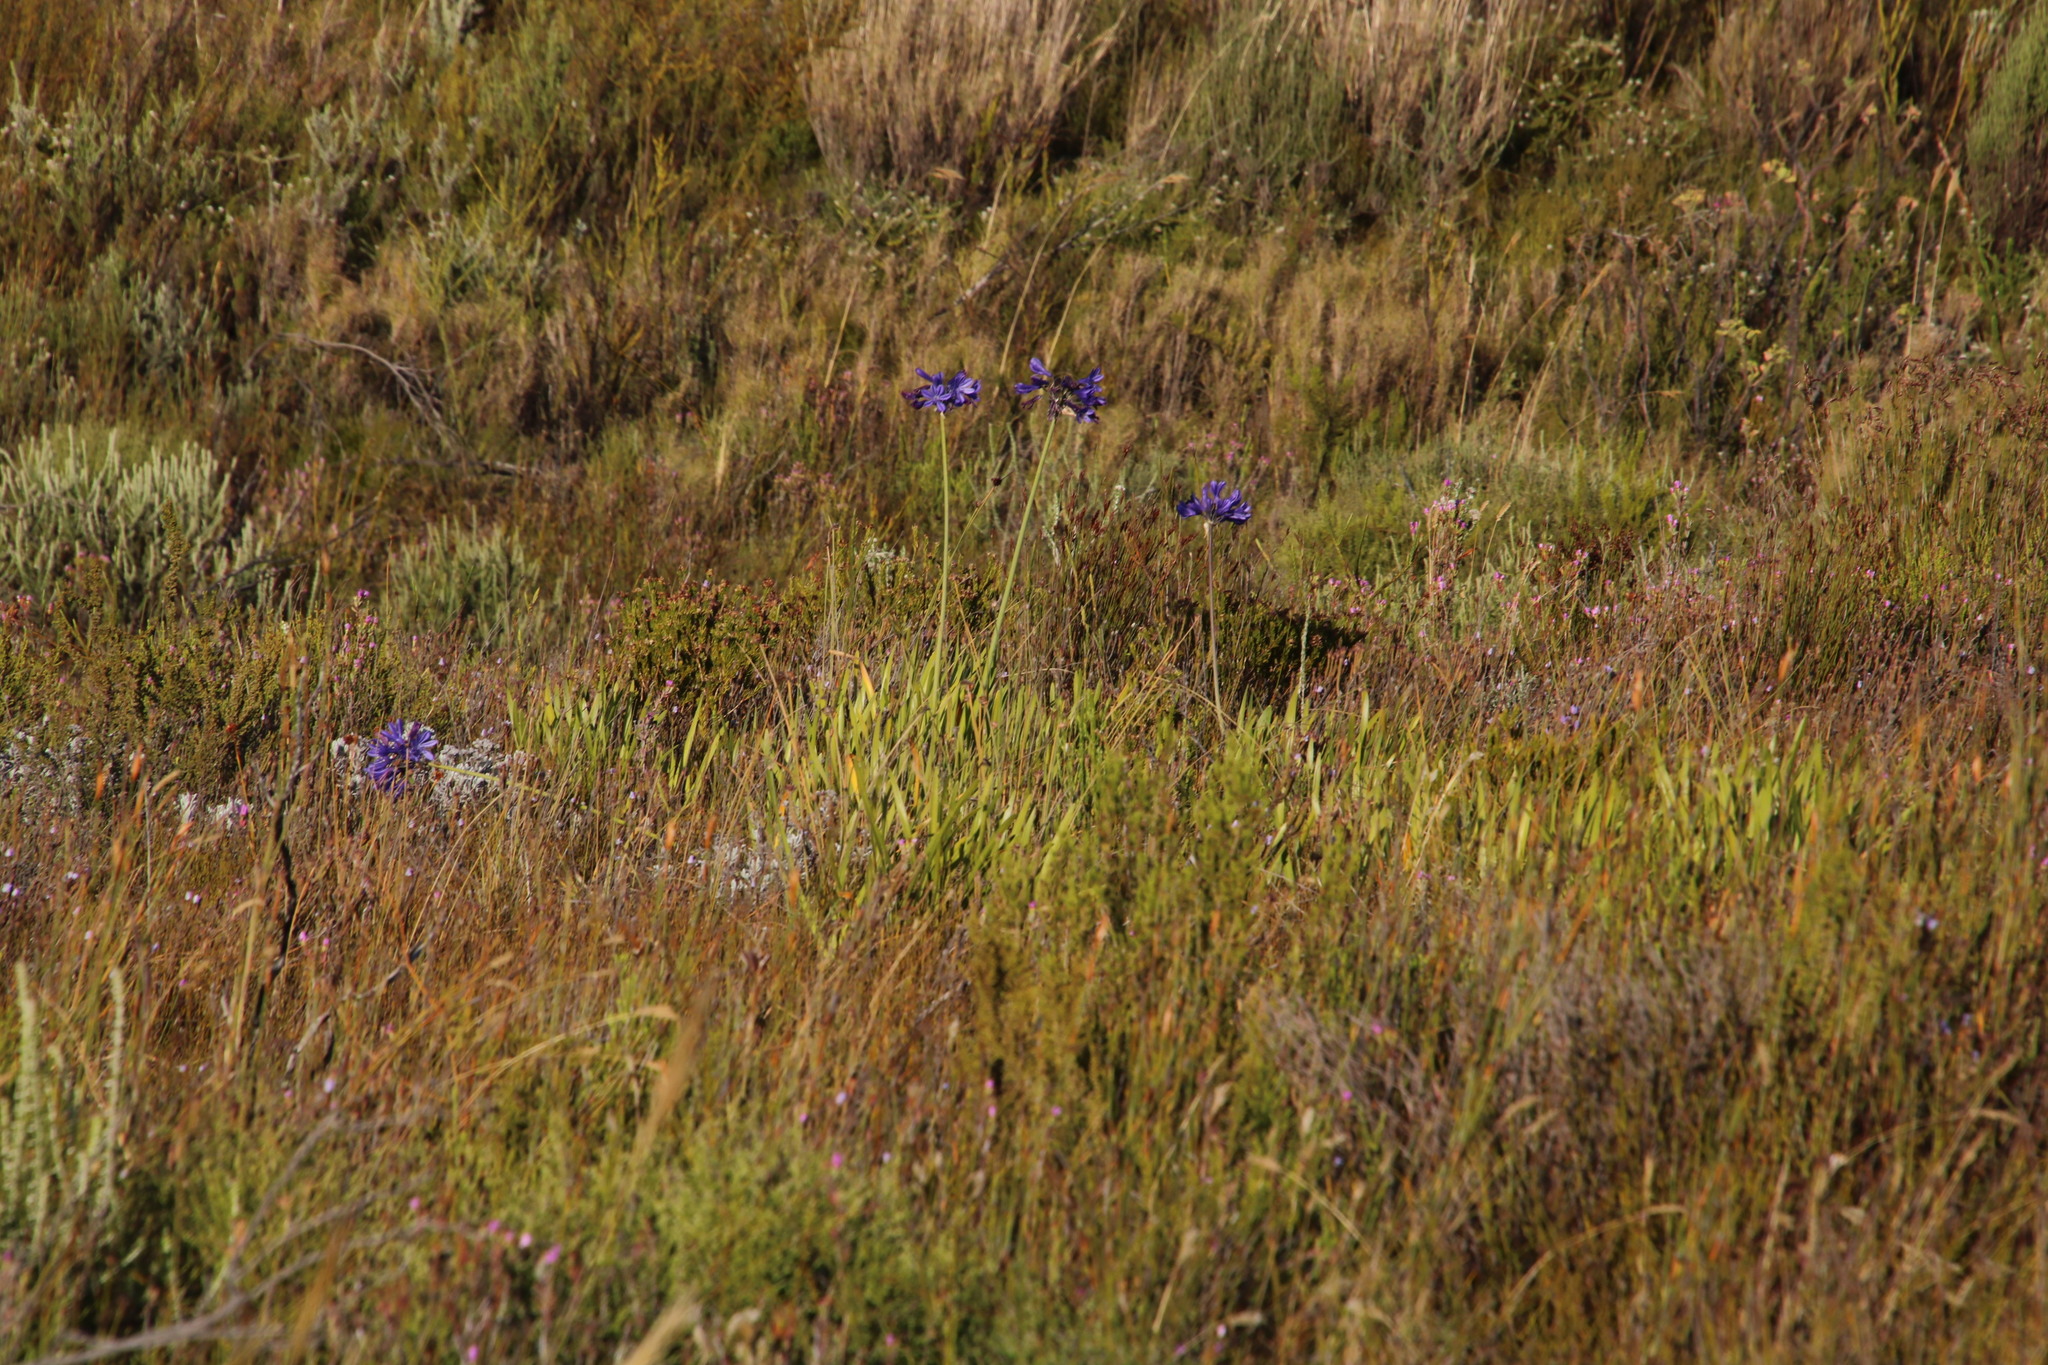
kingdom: Plantae
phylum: Tracheophyta
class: Liliopsida
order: Asparagales
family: Amaryllidaceae
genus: Agapanthus
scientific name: Agapanthus africanus
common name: Lily-of-the-nile
